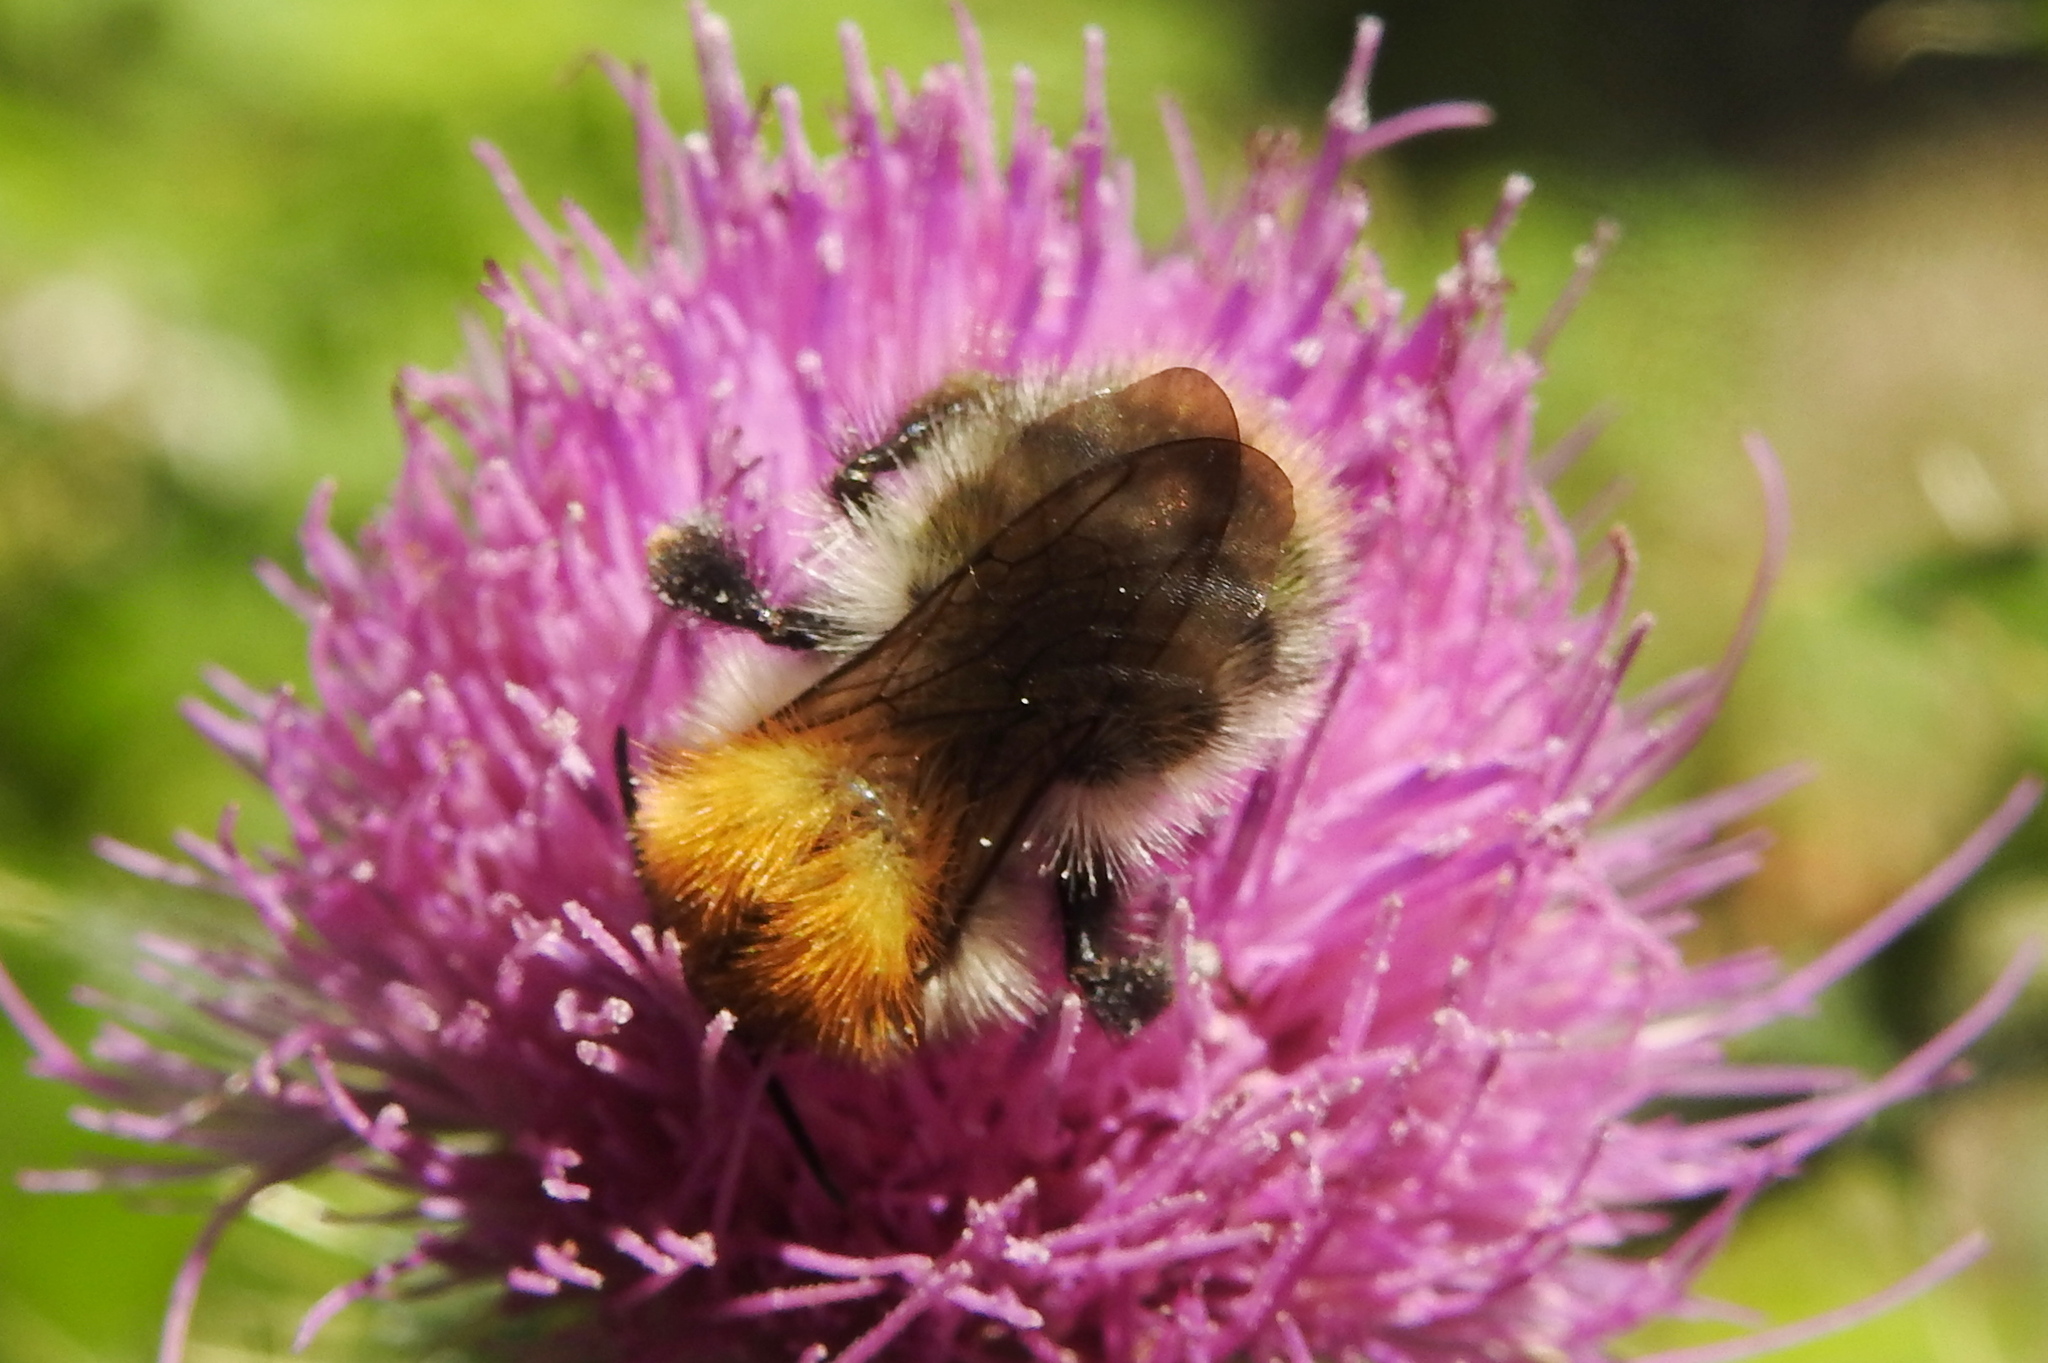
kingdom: Animalia
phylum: Arthropoda
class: Insecta
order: Hymenoptera
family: Apidae
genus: Bombus
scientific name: Bombus pascuorum
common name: Common carder bee
